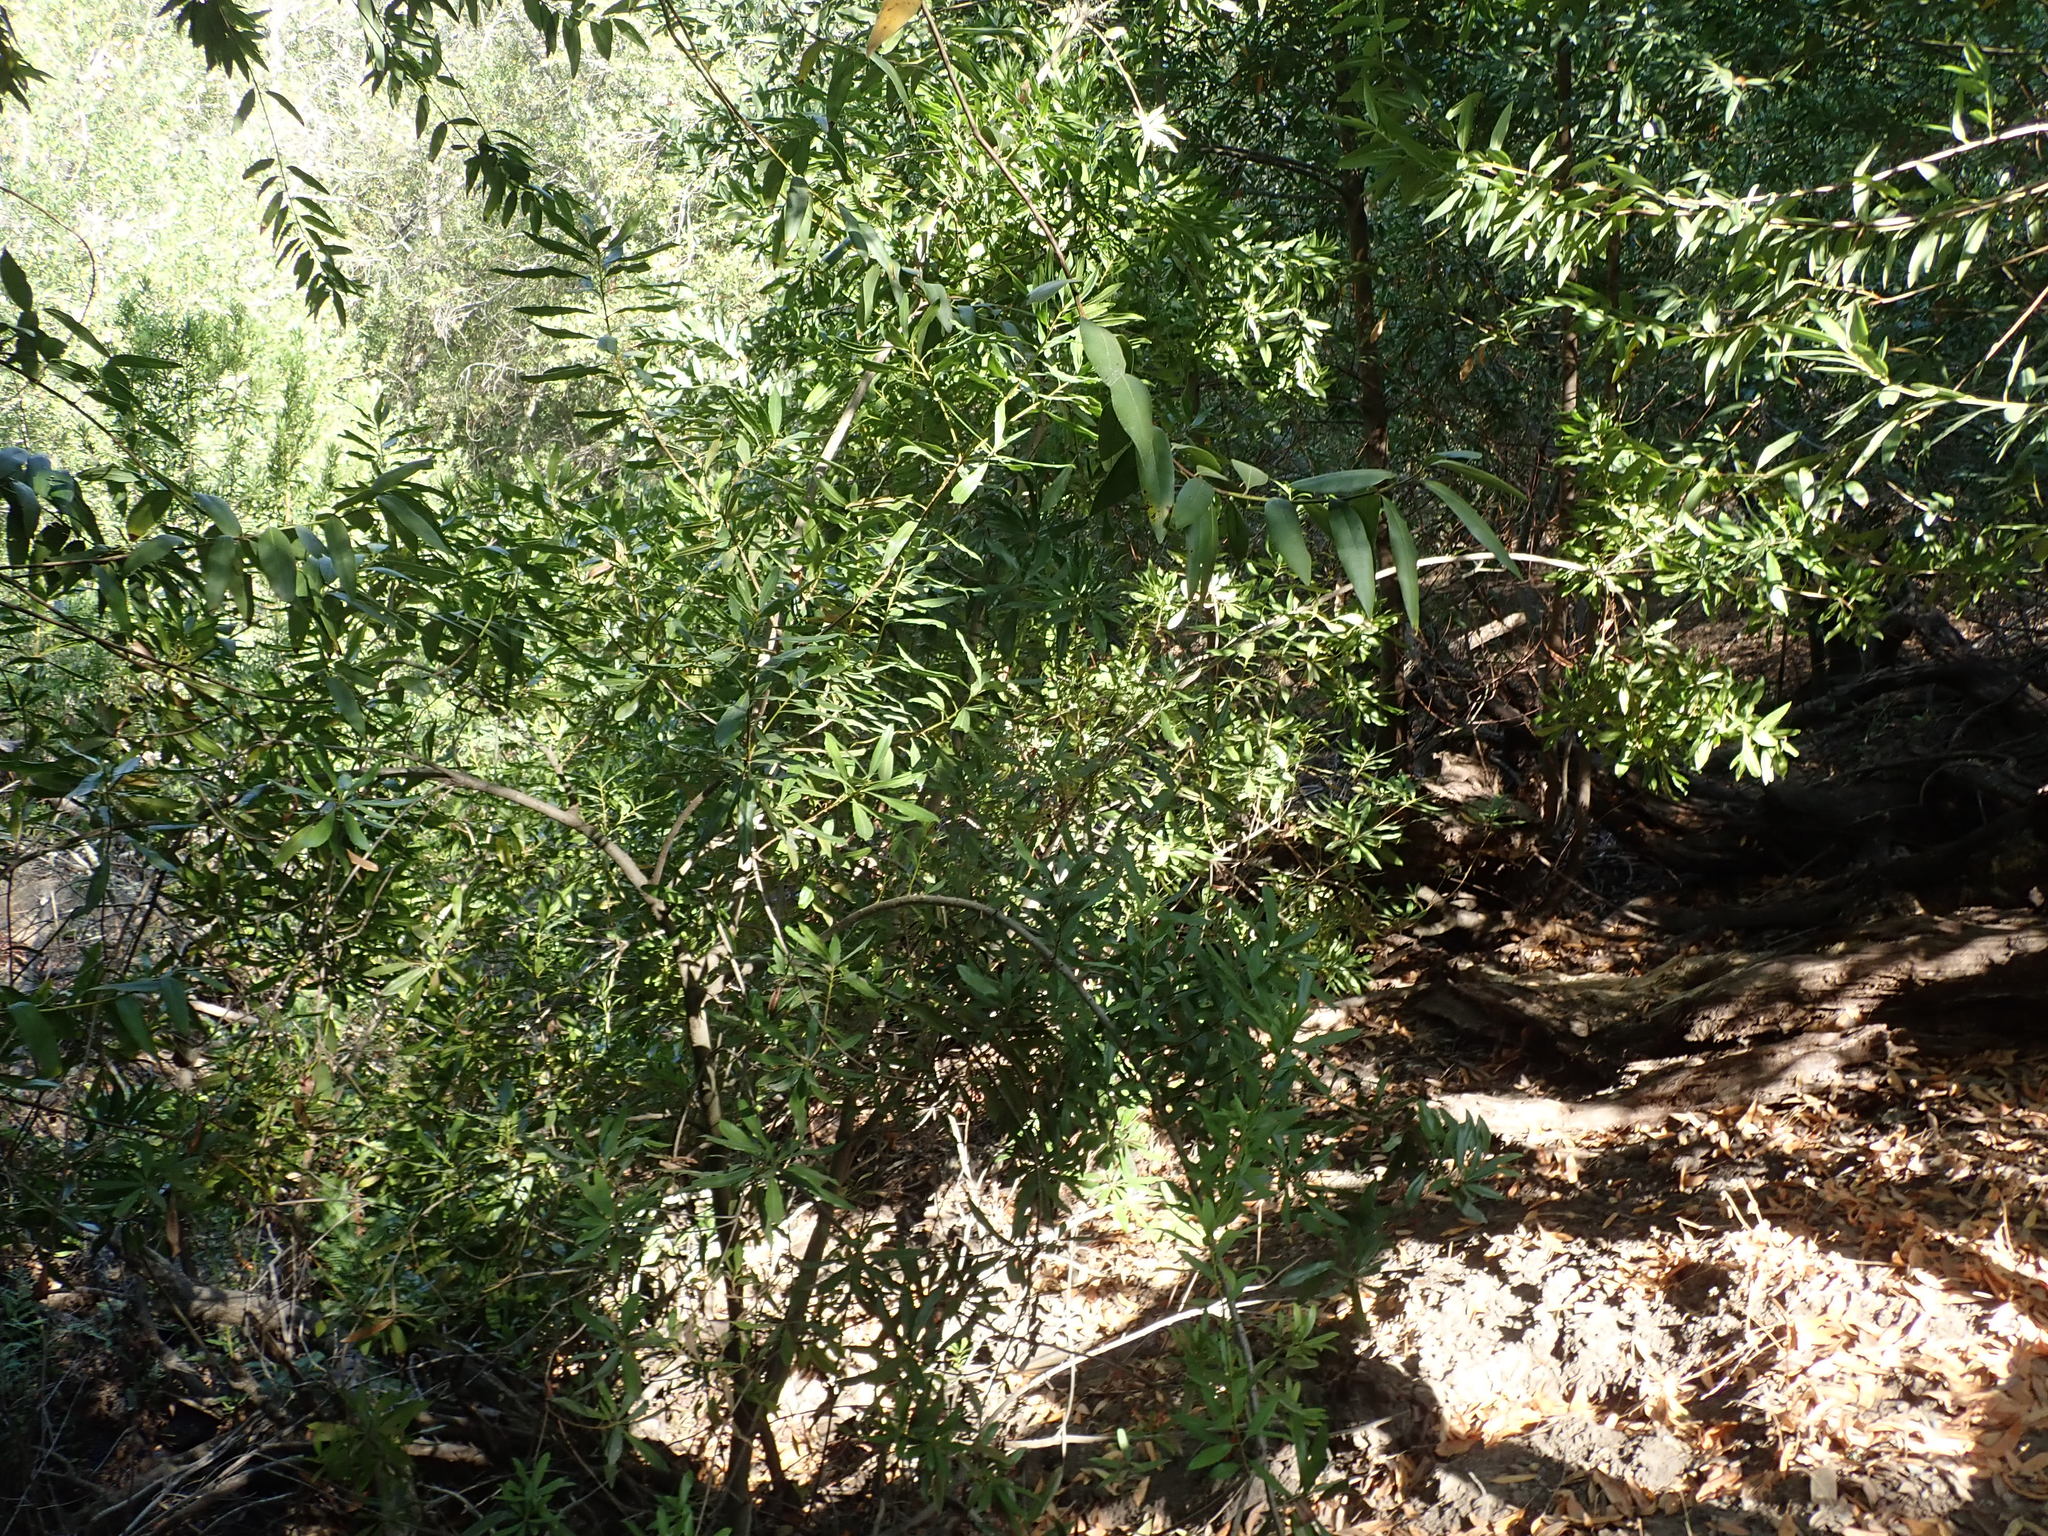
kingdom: Plantae
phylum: Tracheophyta
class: Magnoliopsida
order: Fagales
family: Myricaceae
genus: Morella
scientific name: Morella californica
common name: California wax-myrtle
